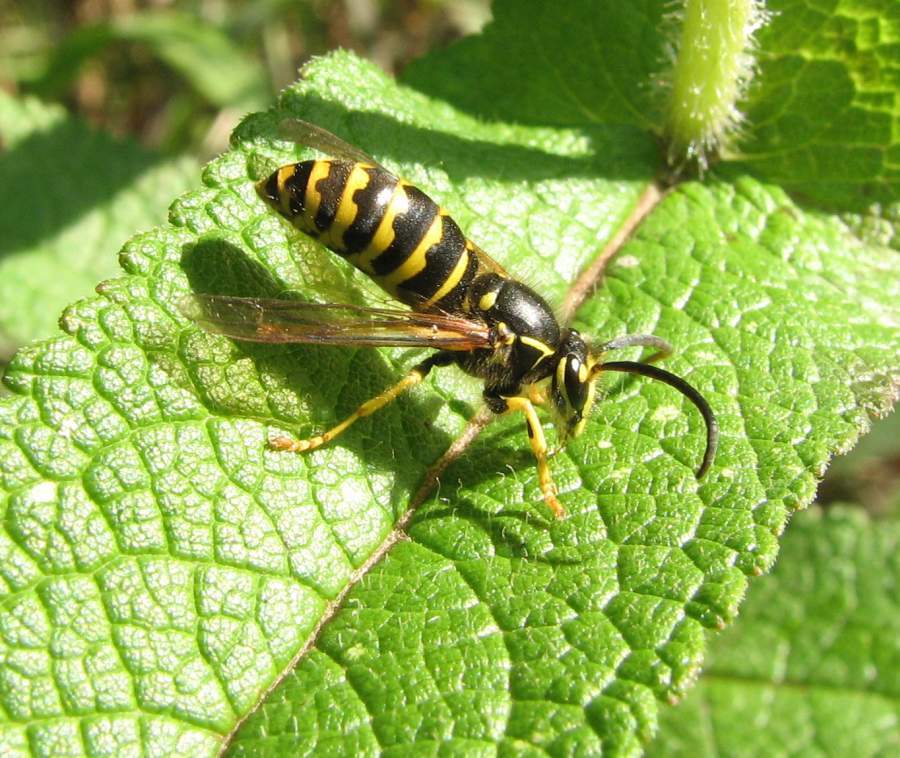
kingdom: Animalia
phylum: Arthropoda
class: Insecta
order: Hymenoptera
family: Vespidae
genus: Dolichovespula
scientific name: Dolichovespula arenaria
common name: Aerial yellowjacket
